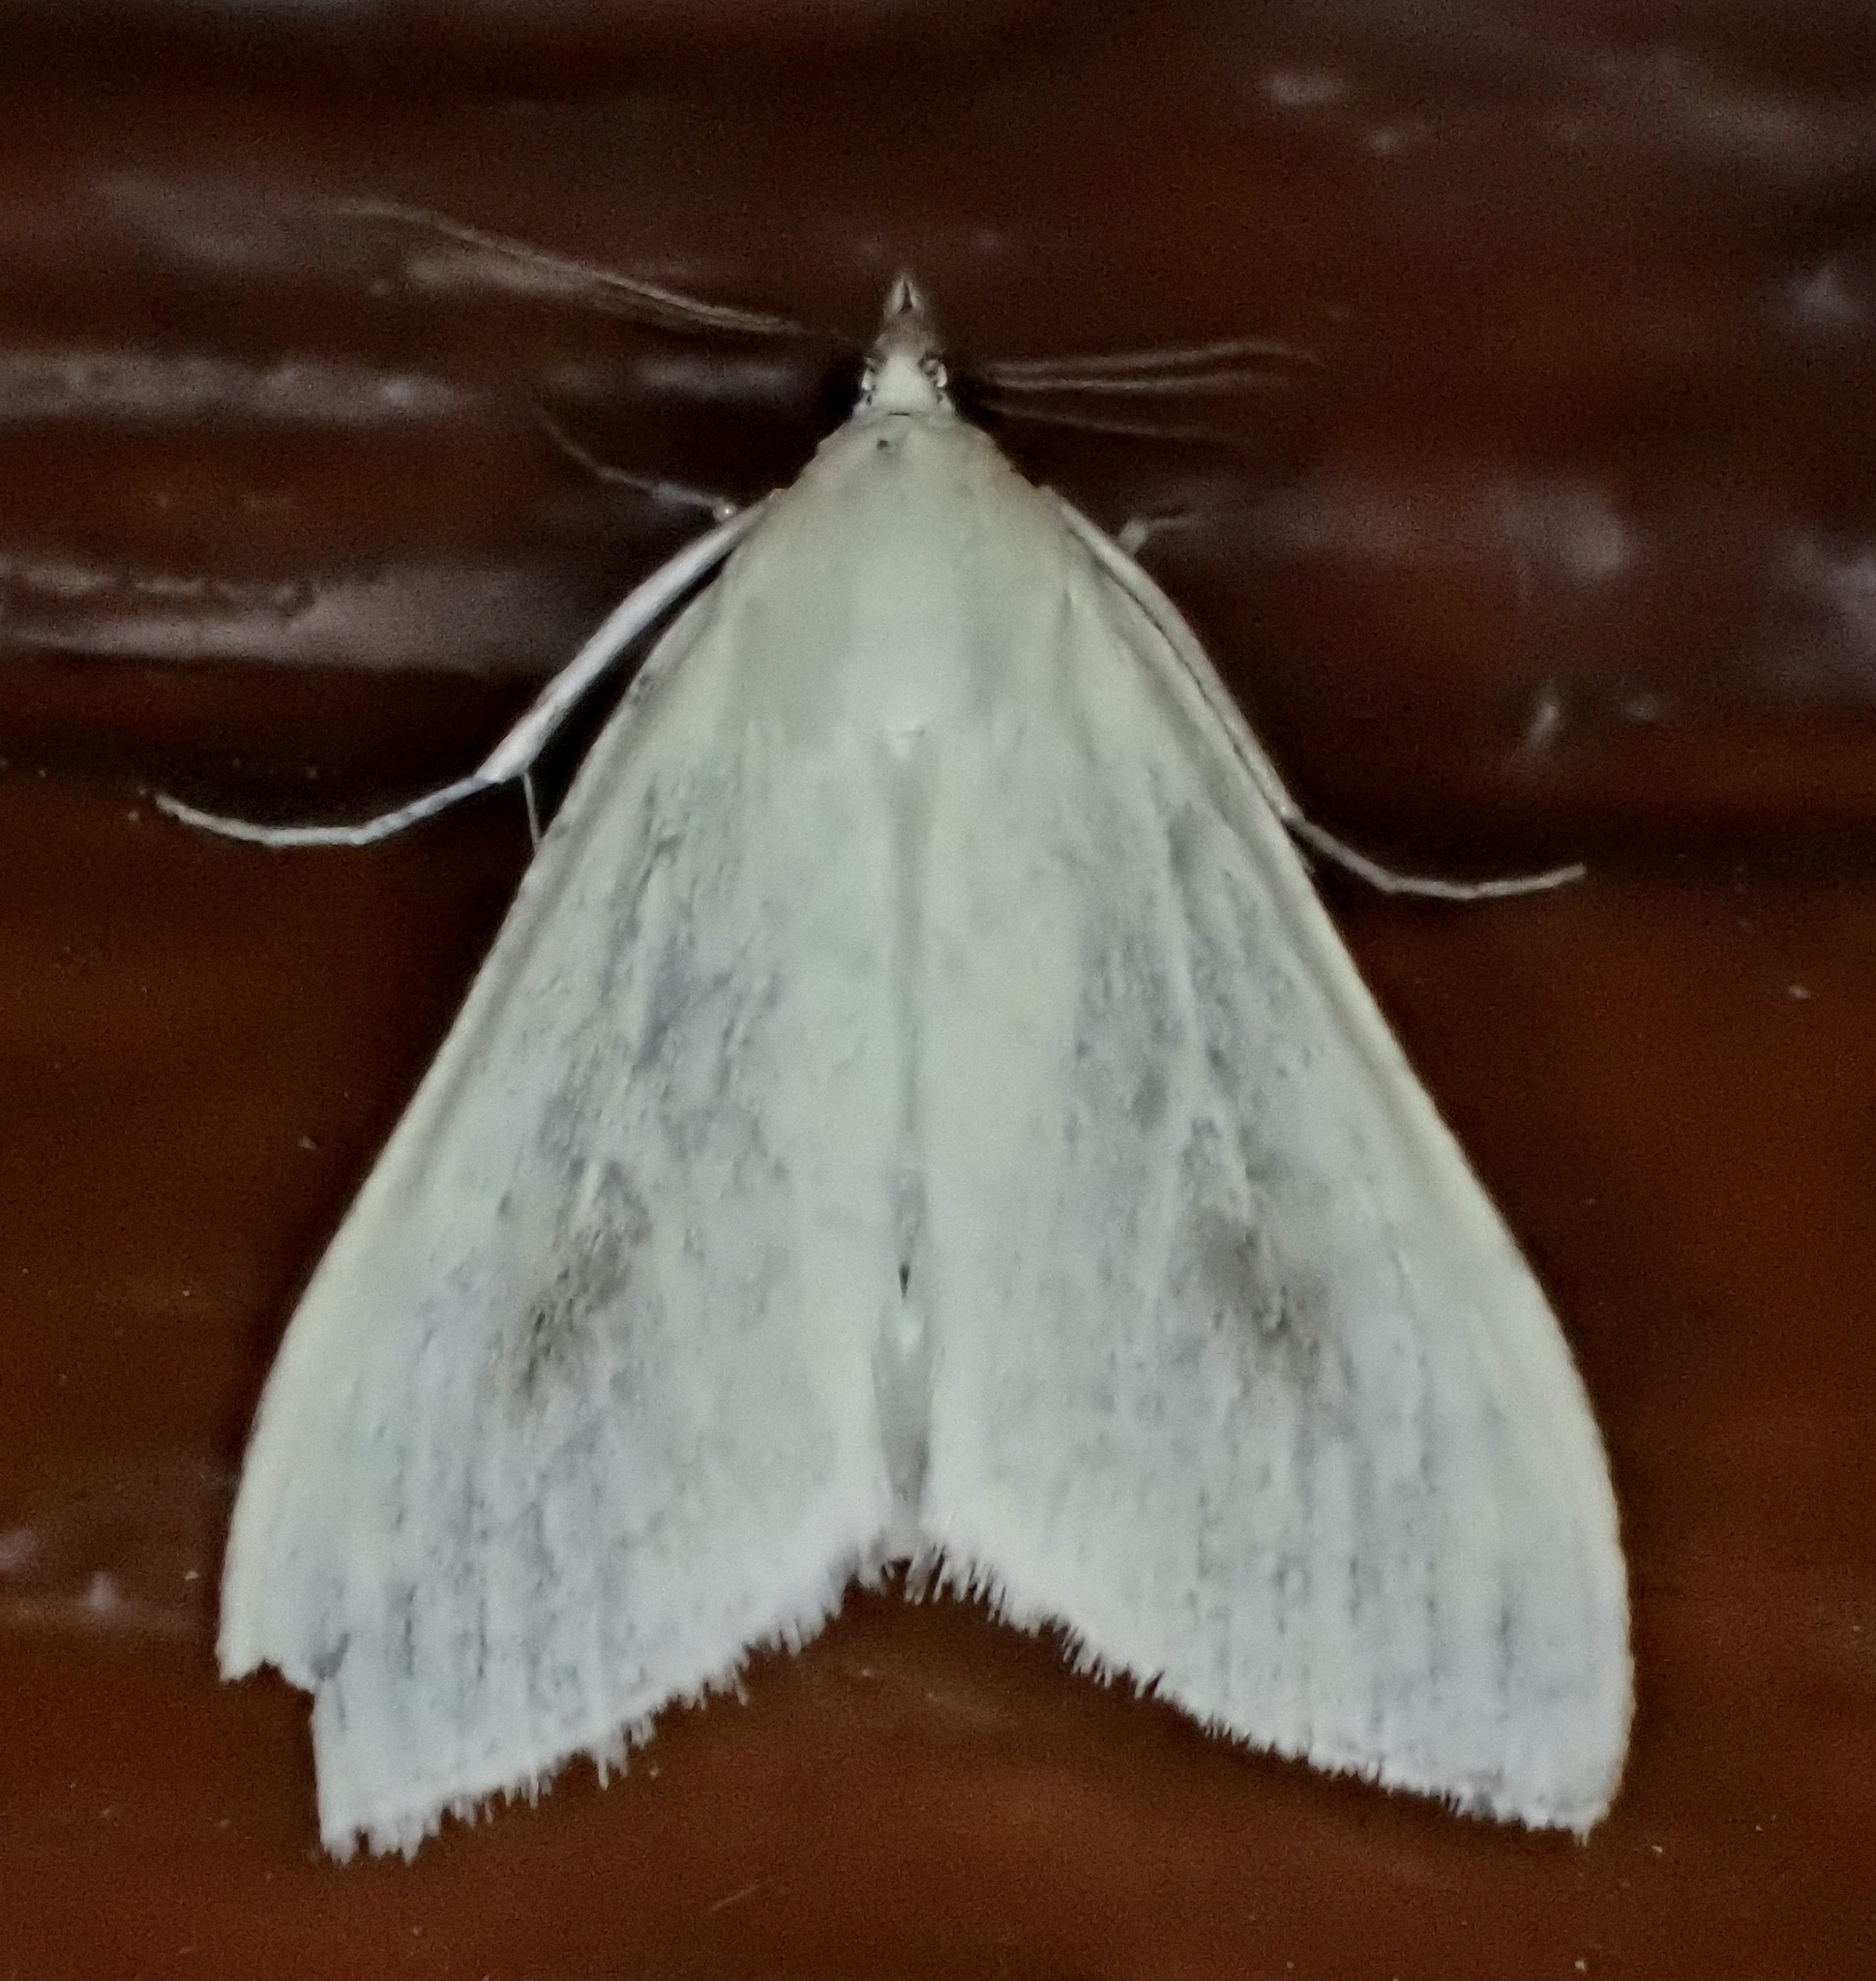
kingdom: Animalia
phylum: Arthropoda
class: Insecta
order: Lepidoptera
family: Crambidae
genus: Sitochroa
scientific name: Sitochroa palealis
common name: Greenish-yellow sitochroa moth
